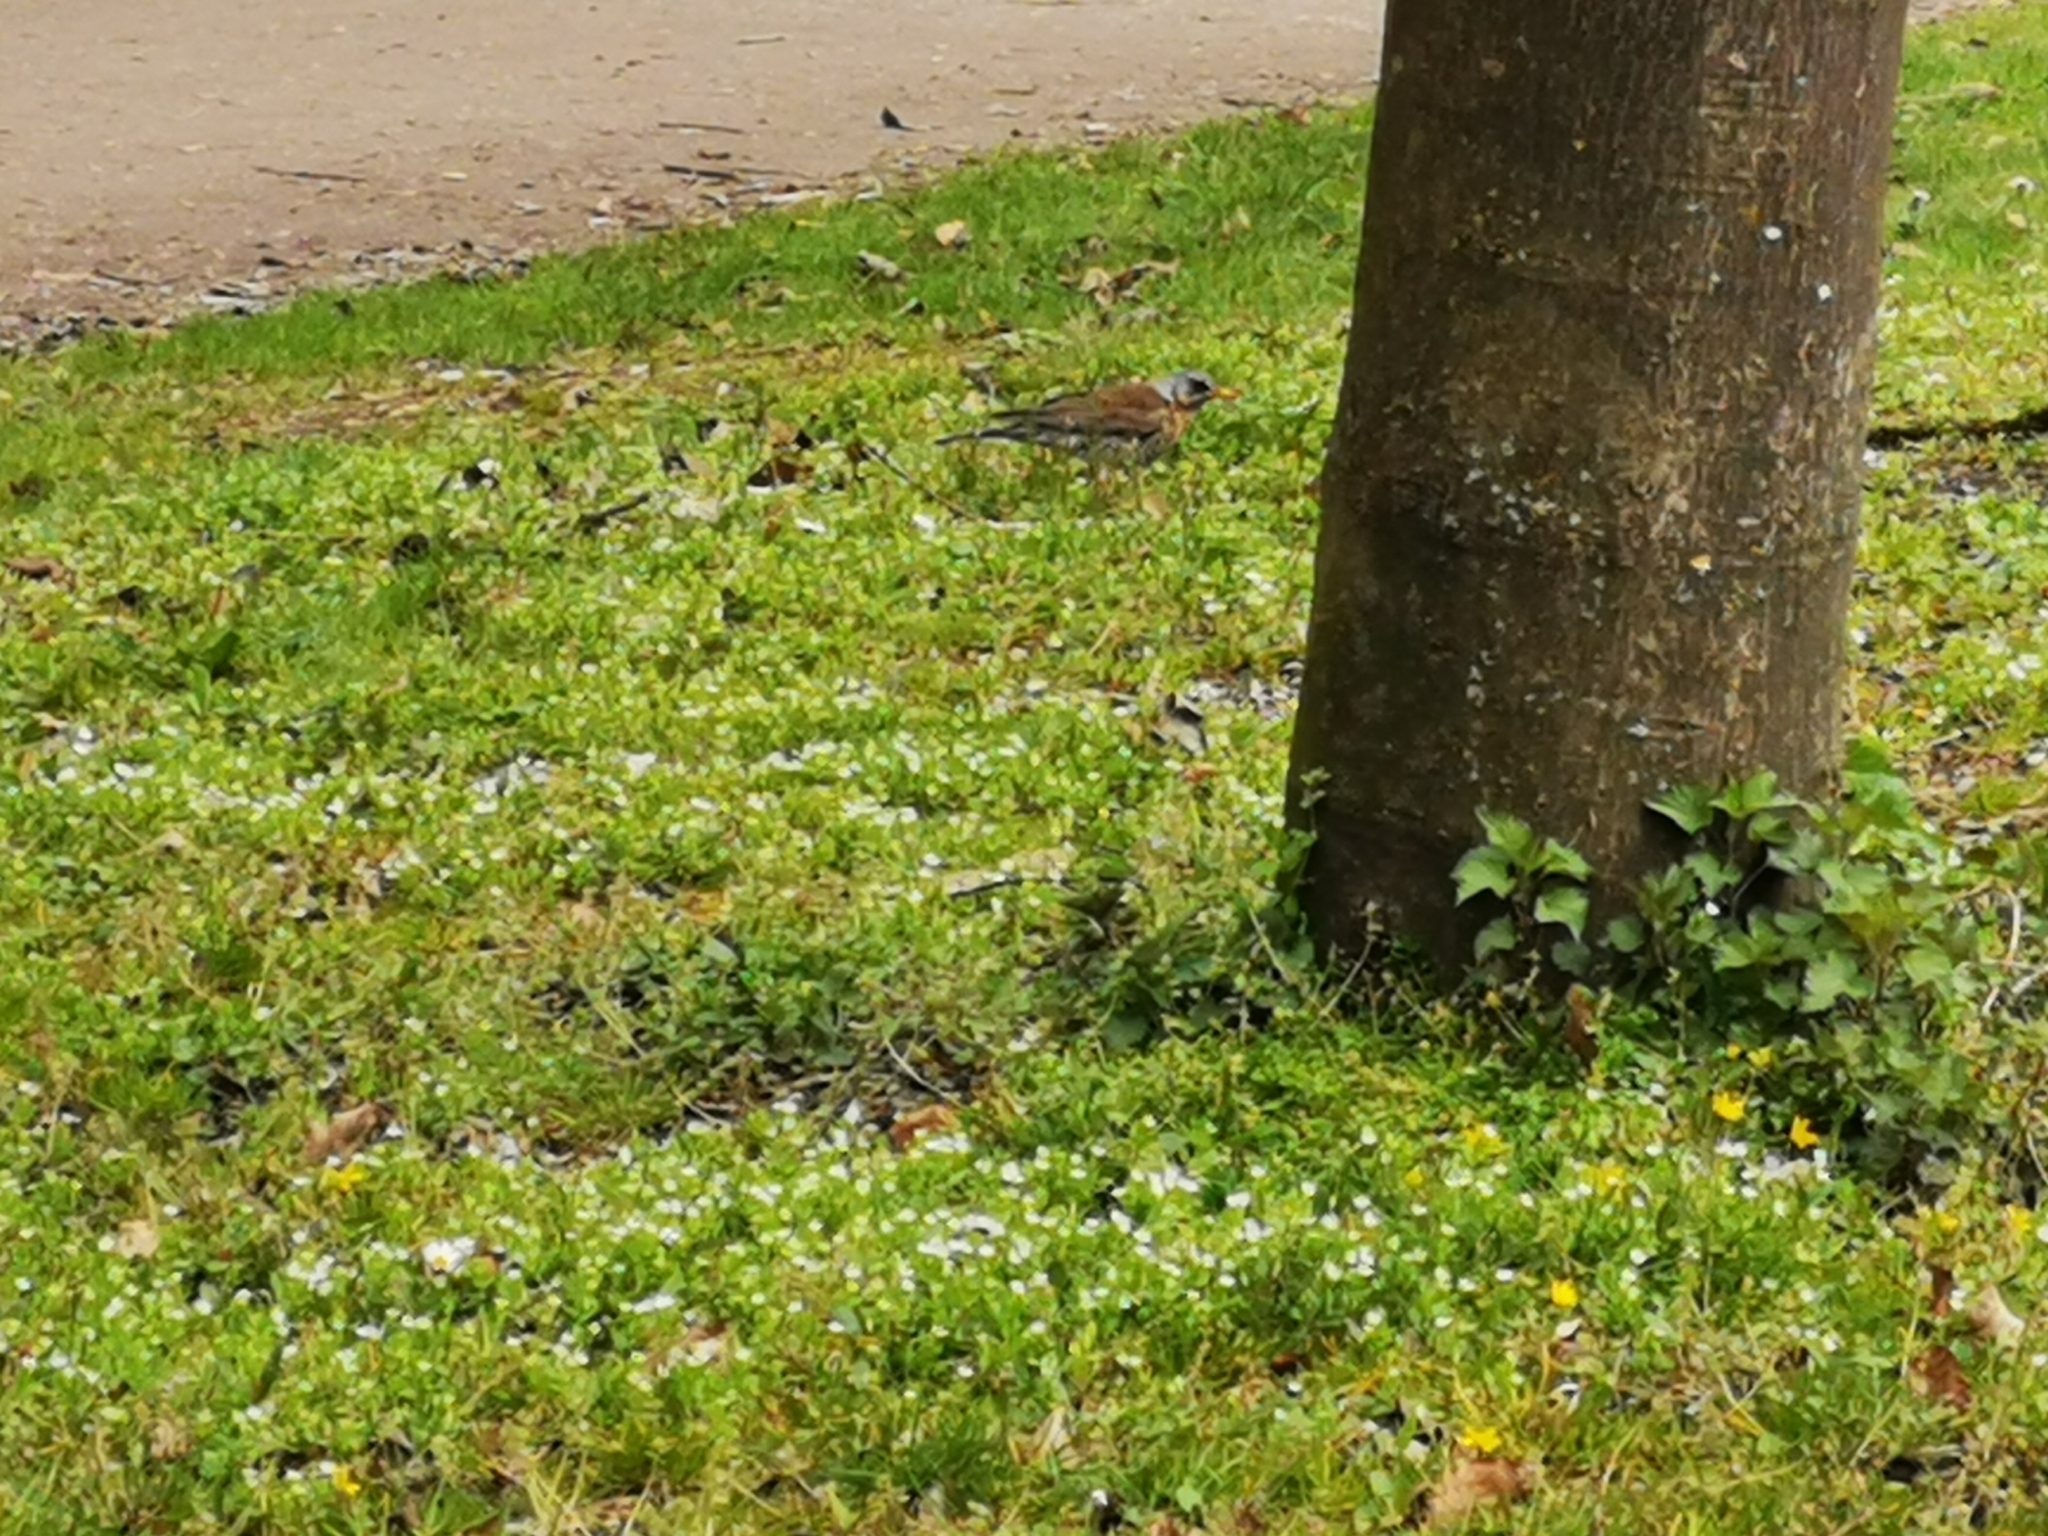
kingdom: Animalia
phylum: Chordata
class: Aves
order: Passeriformes
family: Turdidae
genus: Turdus
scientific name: Turdus pilaris
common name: Fieldfare
